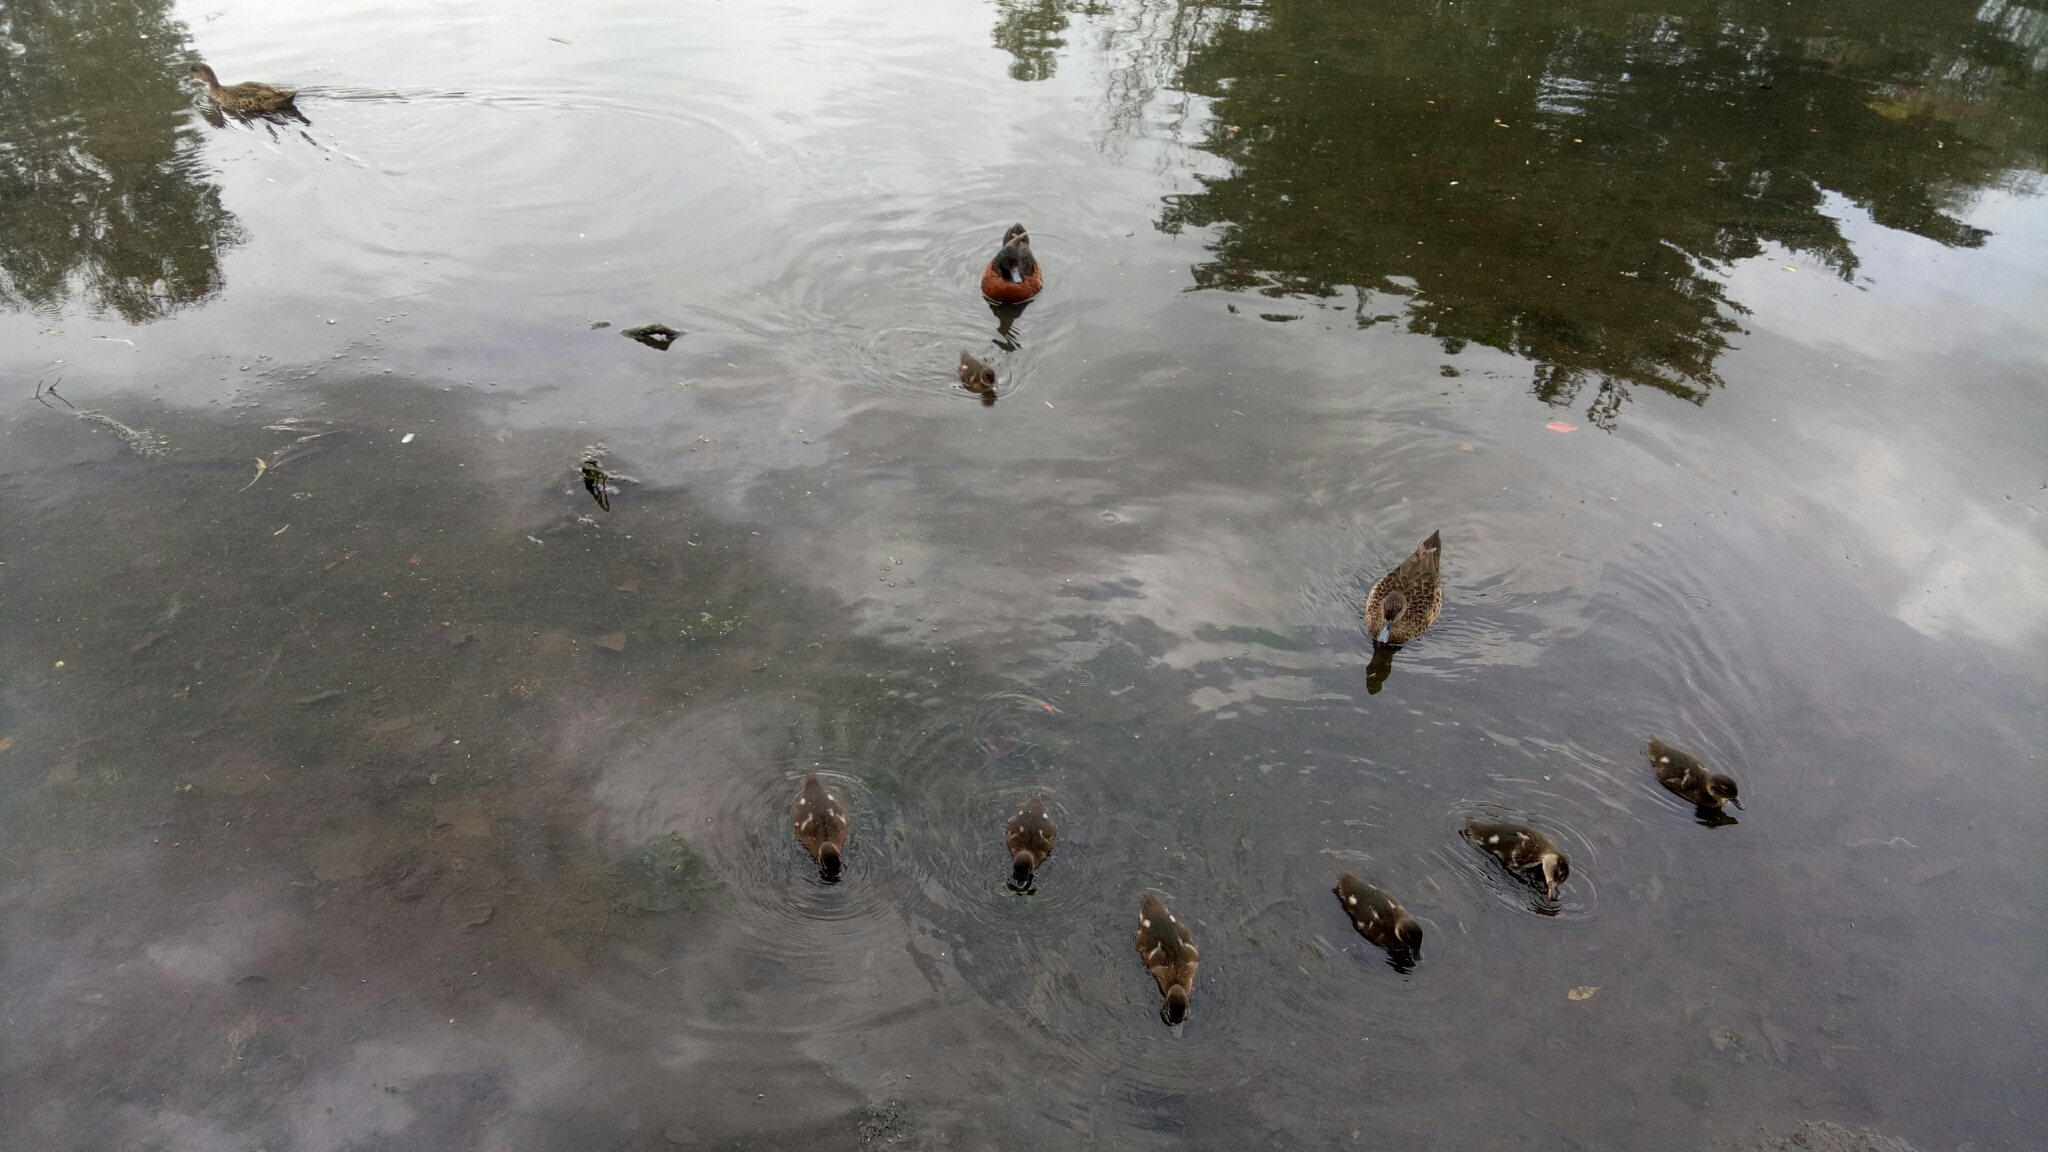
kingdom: Animalia
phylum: Chordata
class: Aves
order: Anseriformes
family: Anatidae
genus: Anas
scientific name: Anas castanea
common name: Chestnut teal
